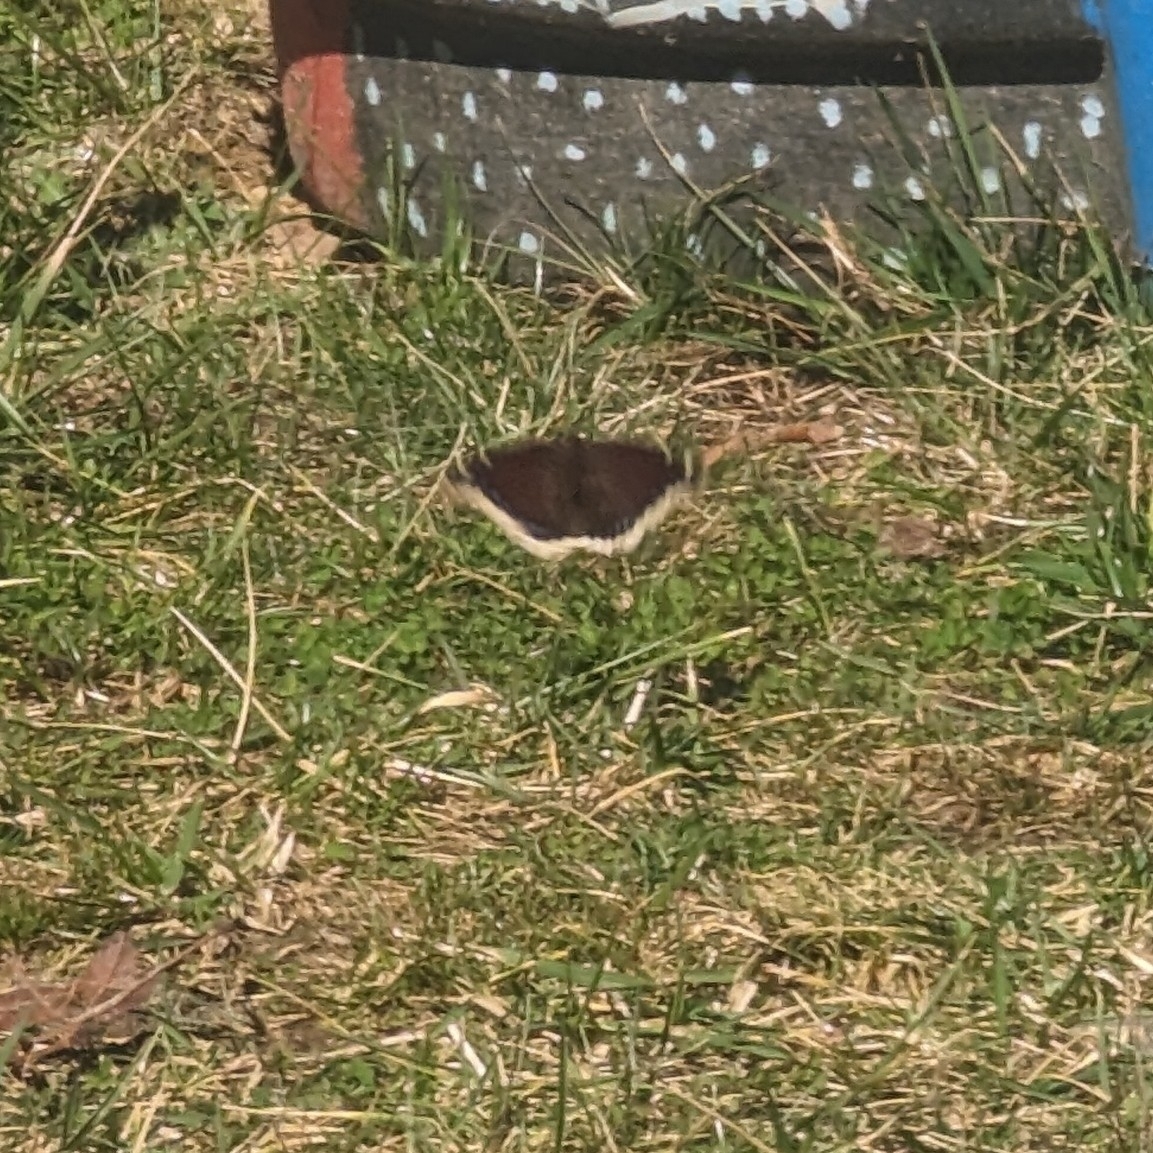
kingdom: Animalia
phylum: Arthropoda
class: Insecta
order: Lepidoptera
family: Nymphalidae
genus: Nymphalis
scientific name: Nymphalis antiopa
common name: Camberwell beauty
